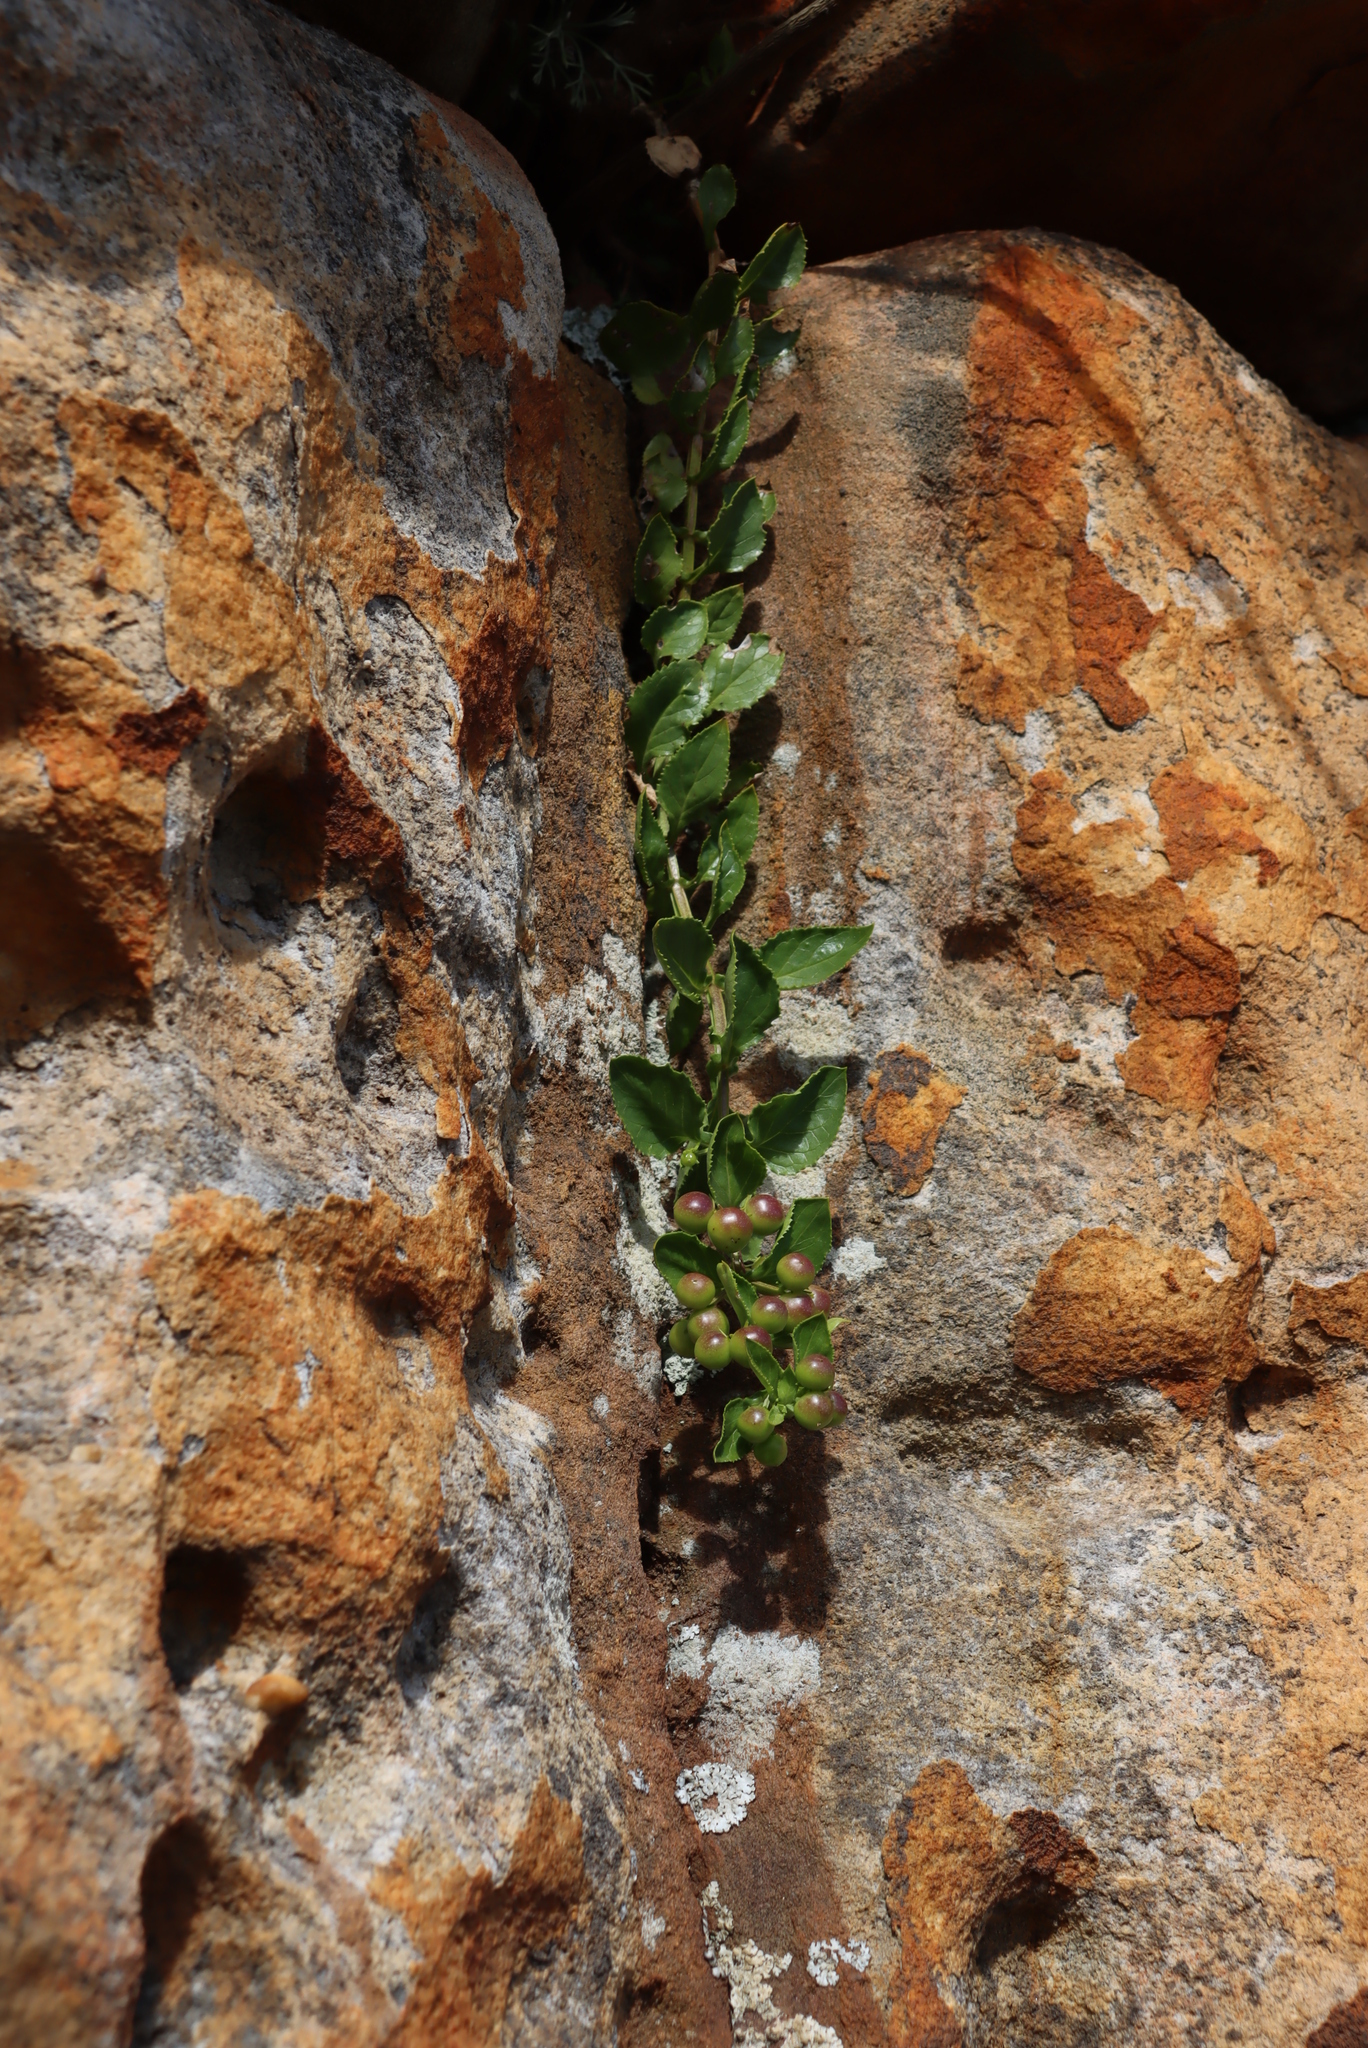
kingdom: Plantae
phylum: Tracheophyta
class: Magnoliopsida
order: Lamiales
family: Scrophulariaceae
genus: Teedia
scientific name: Teedia lucida
